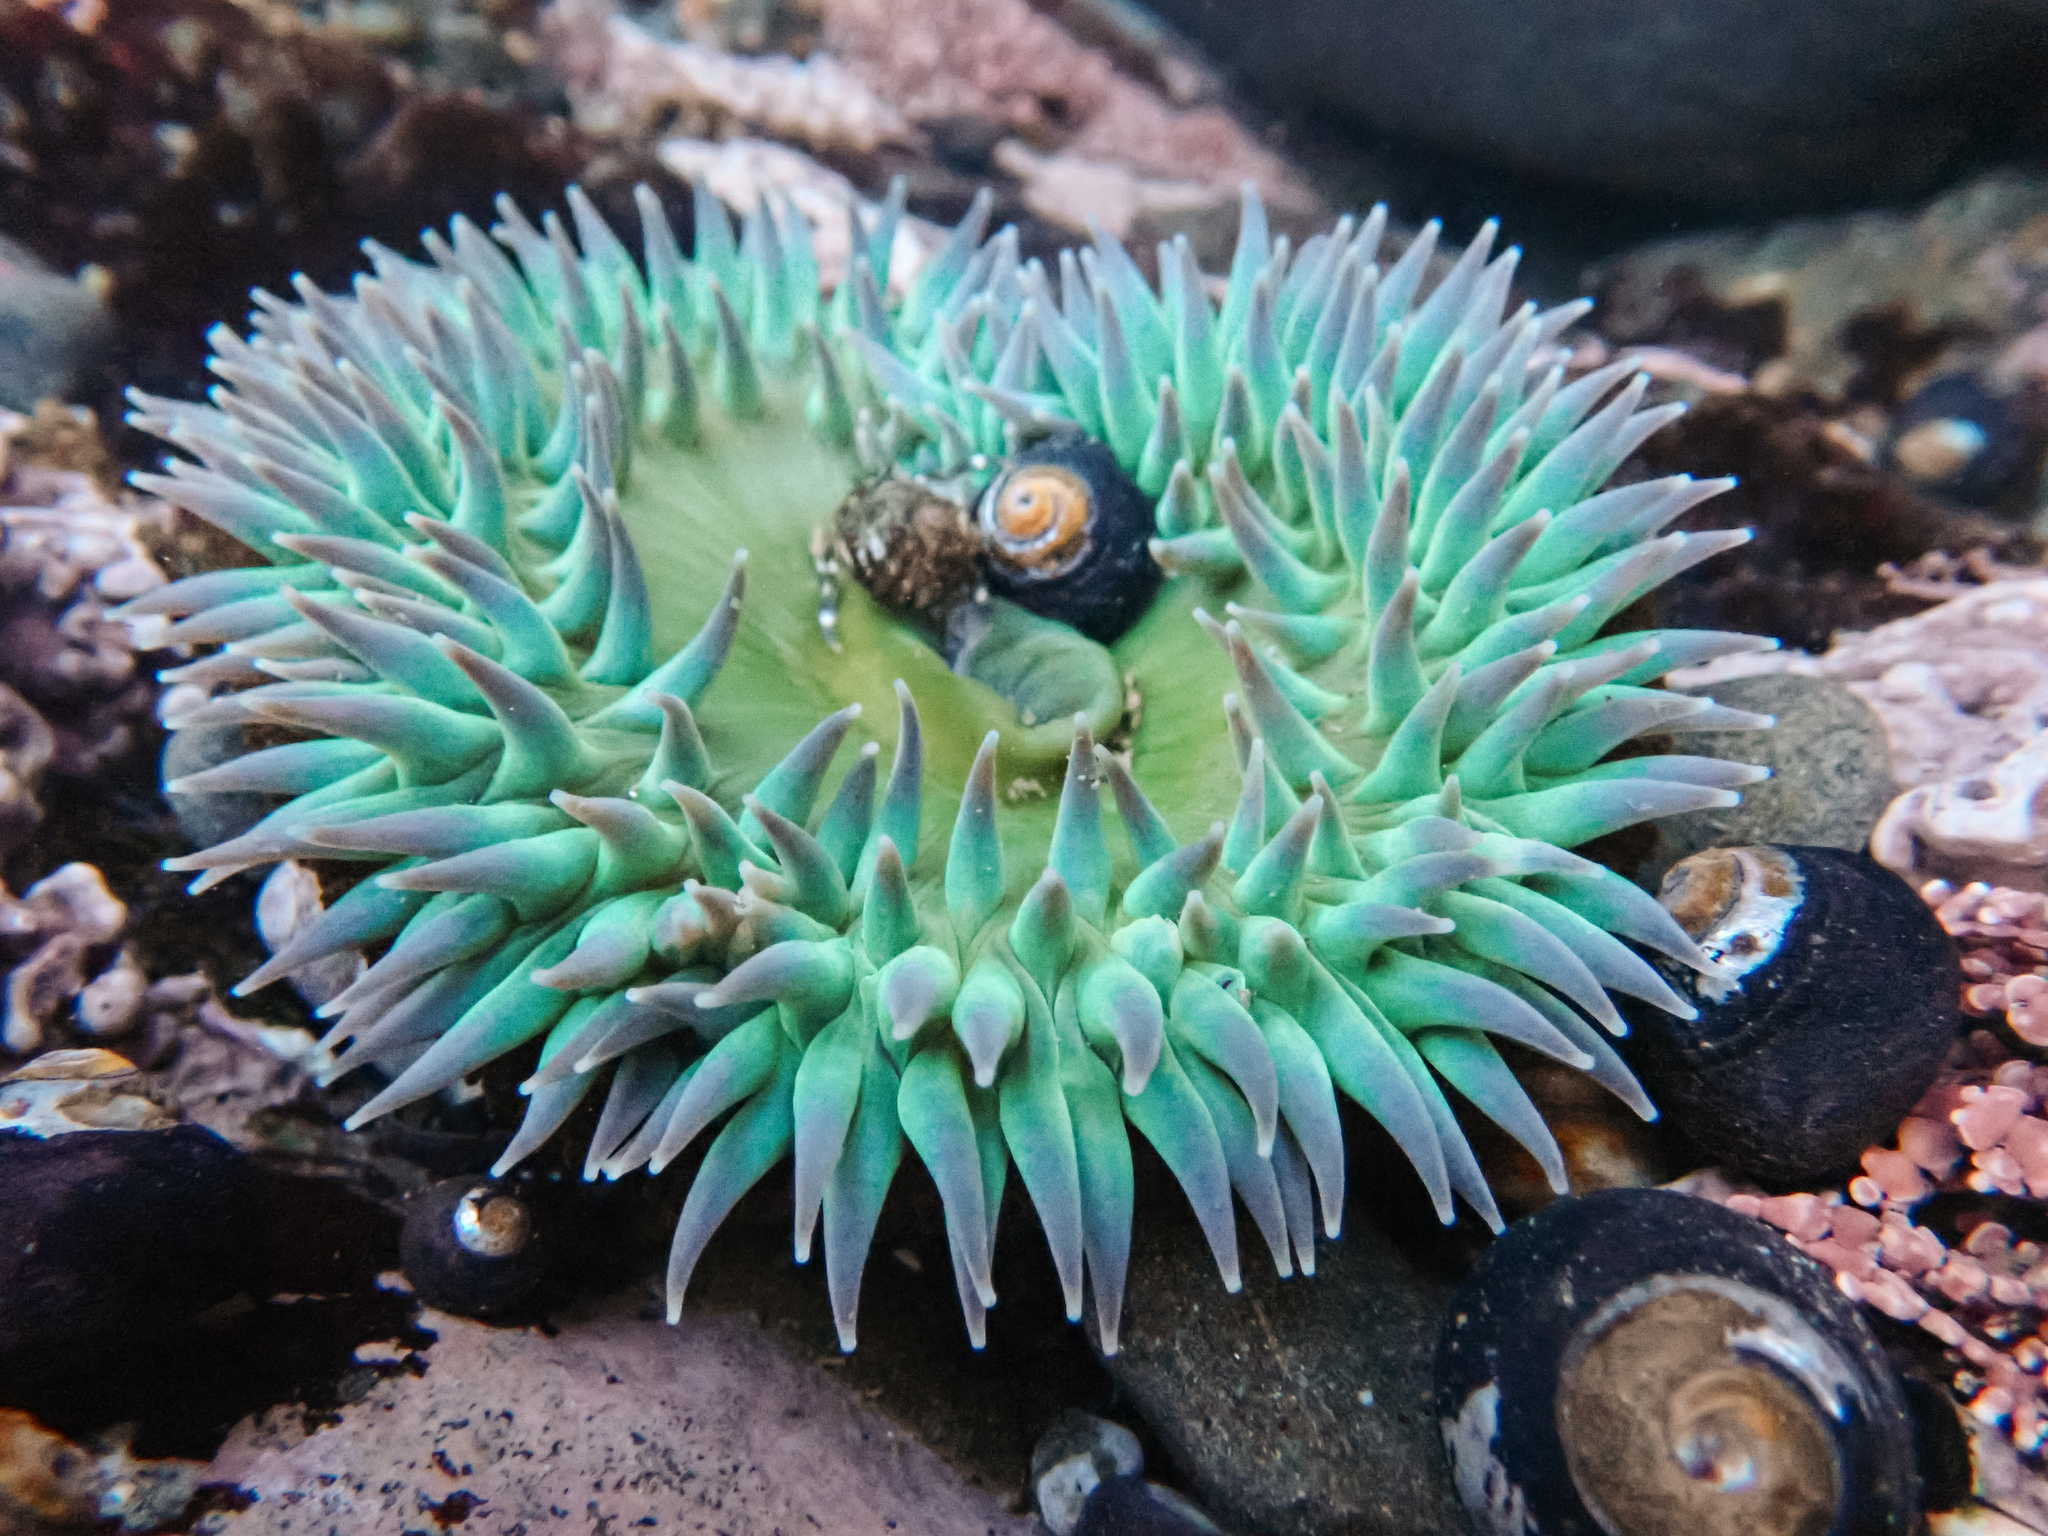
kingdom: Animalia
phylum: Cnidaria
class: Anthozoa
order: Actiniaria
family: Actiniidae
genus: Anthopleura
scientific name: Anthopleura xanthogrammica
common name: Giant green anemone
